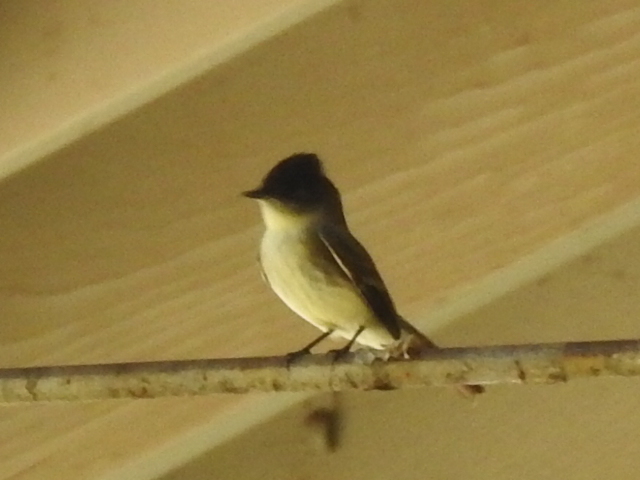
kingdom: Animalia
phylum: Chordata
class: Aves
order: Passeriformes
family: Tyrannidae
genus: Sayornis
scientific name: Sayornis phoebe
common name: Eastern phoebe
